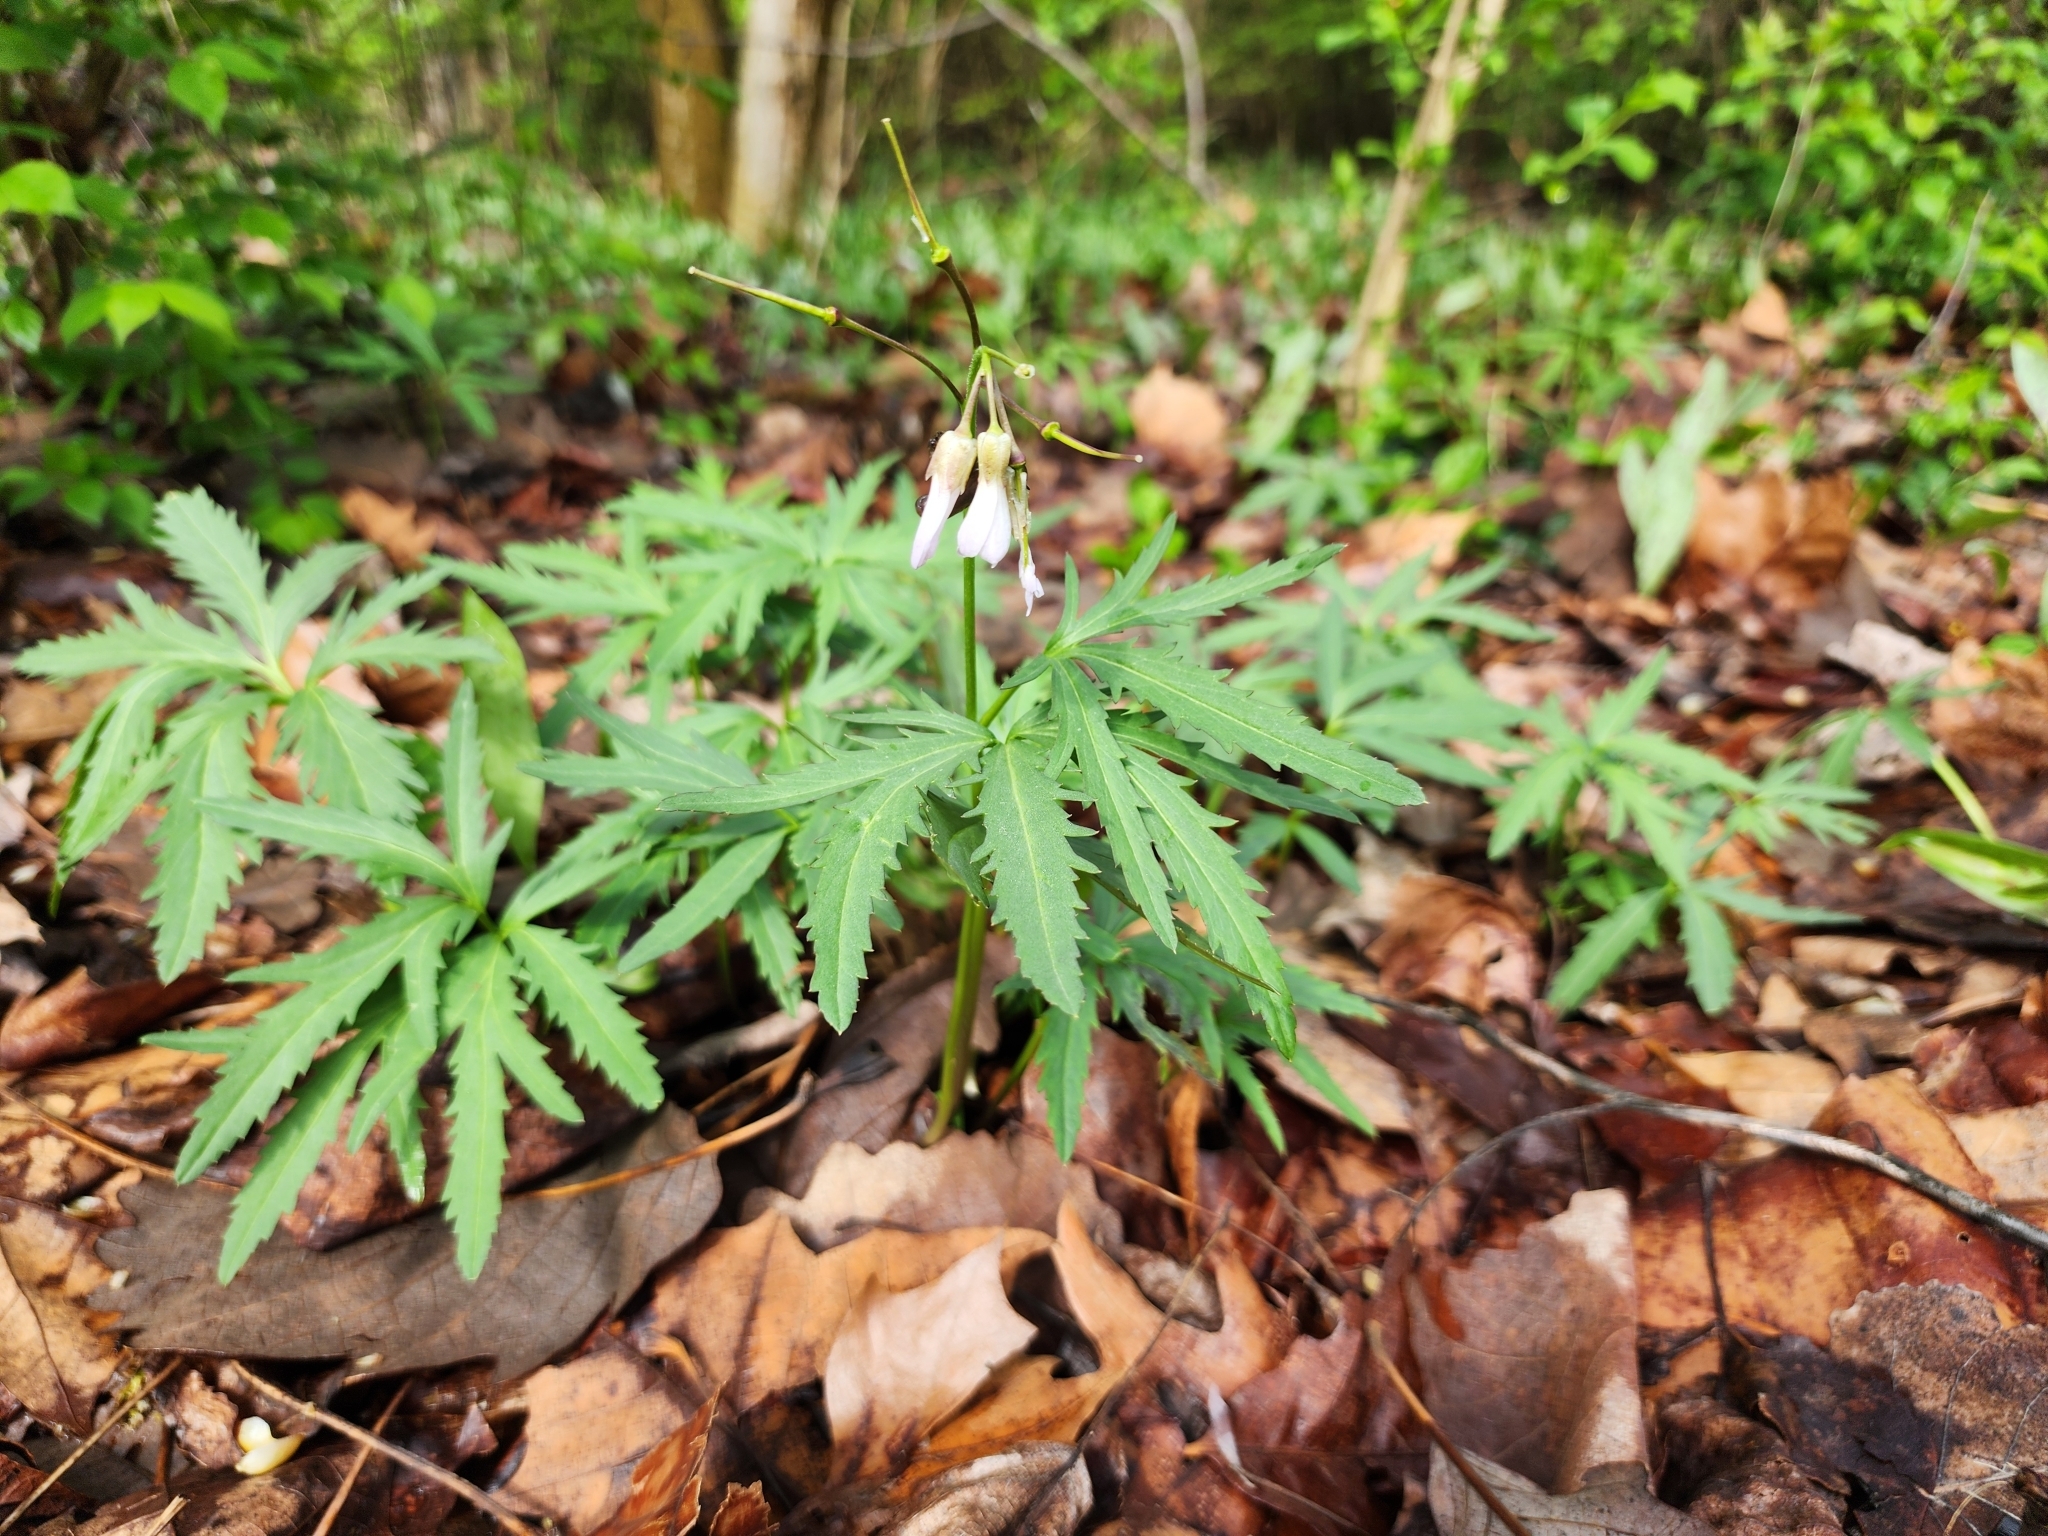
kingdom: Plantae
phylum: Tracheophyta
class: Magnoliopsida
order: Brassicales
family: Brassicaceae
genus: Cardamine
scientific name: Cardamine concatenata
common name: Cut-leaf toothcup
